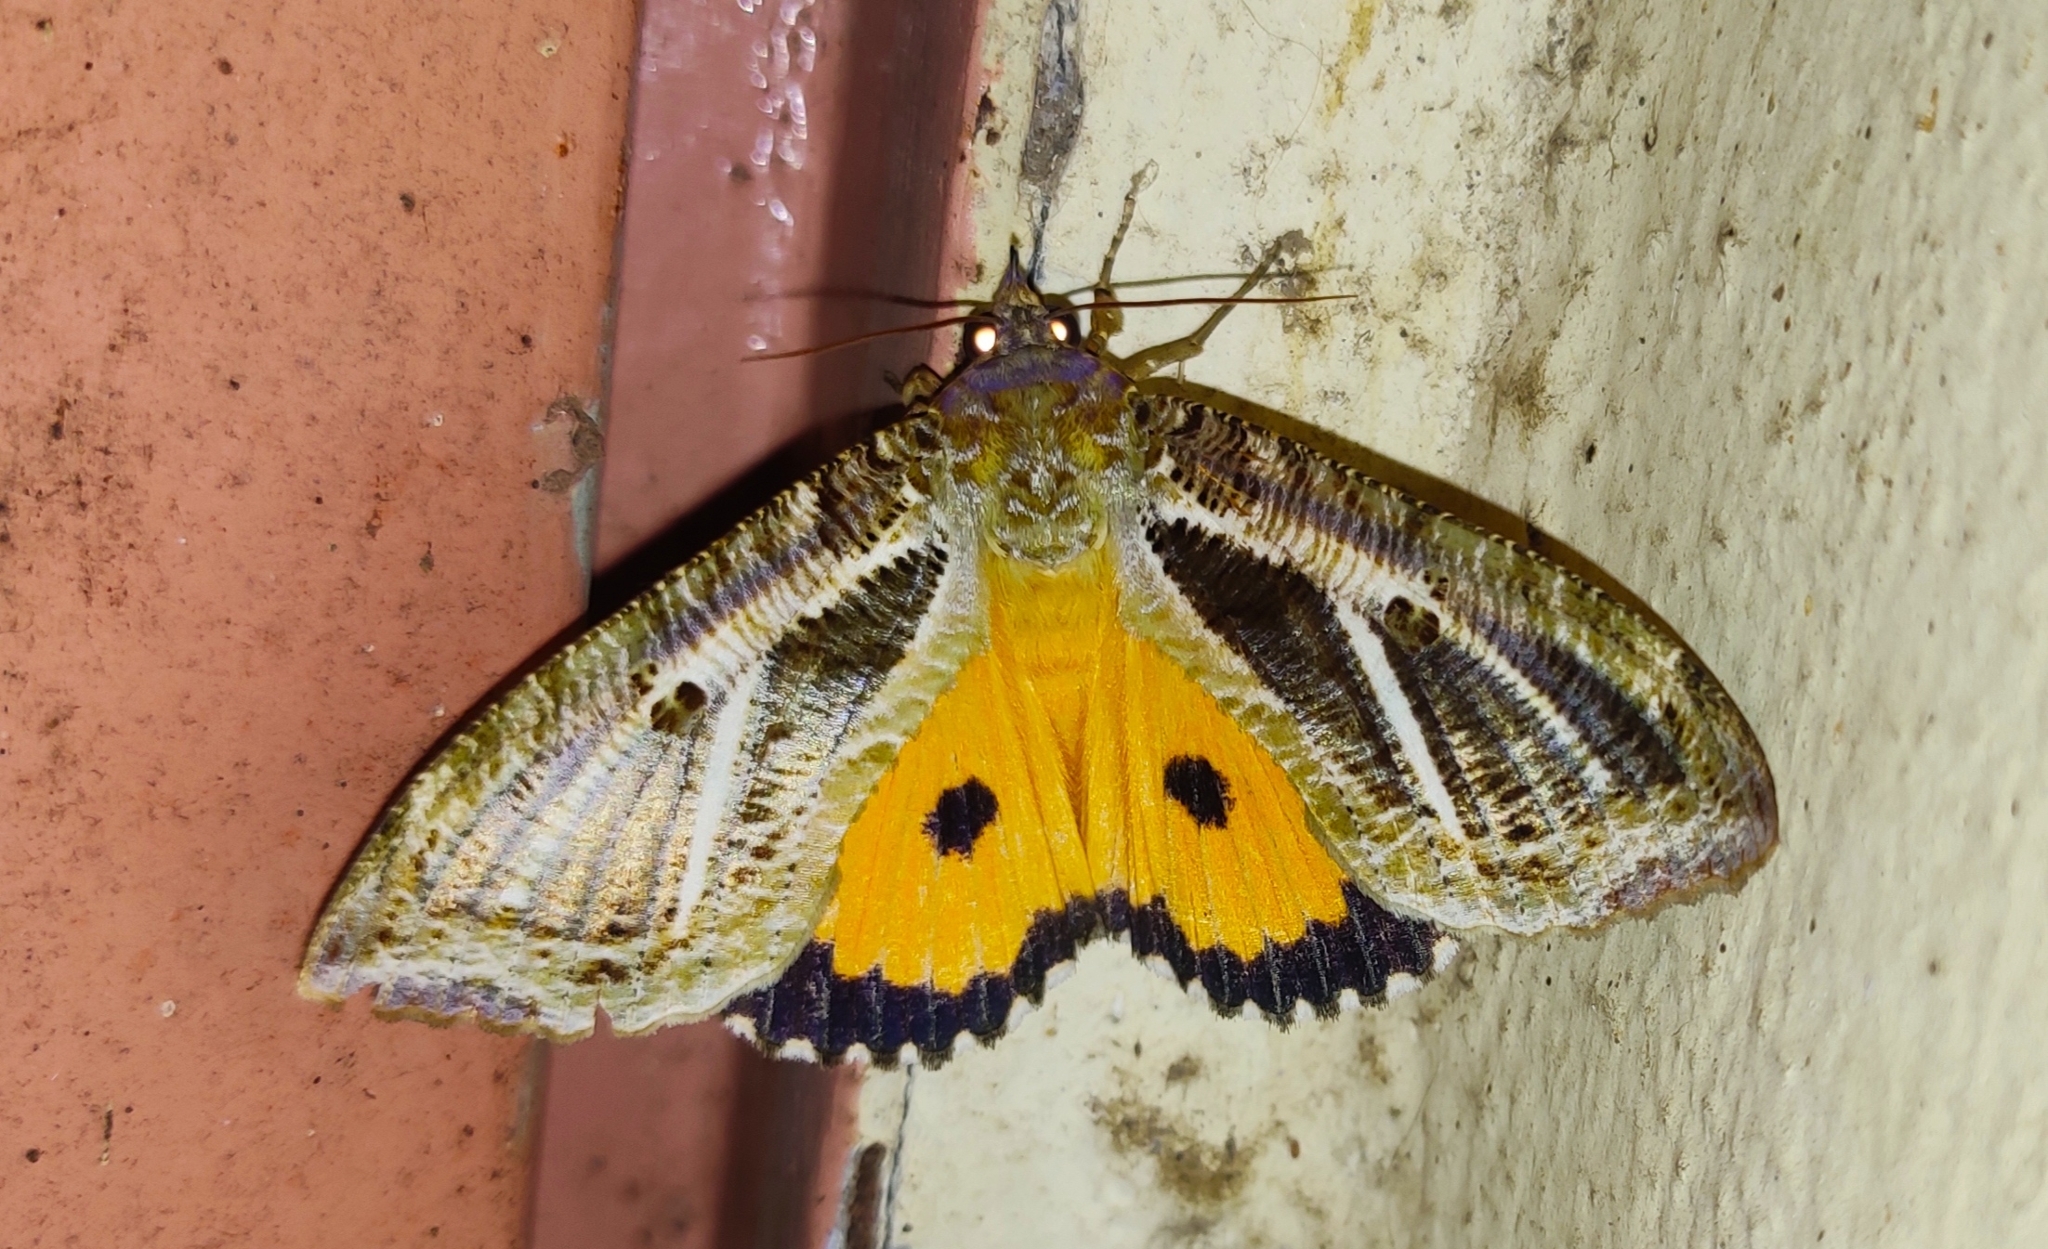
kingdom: Animalia
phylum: Arthropoda
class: Insecta
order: Lepidoptera
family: Erebidae
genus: Eudocima
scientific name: Eudocima materna
